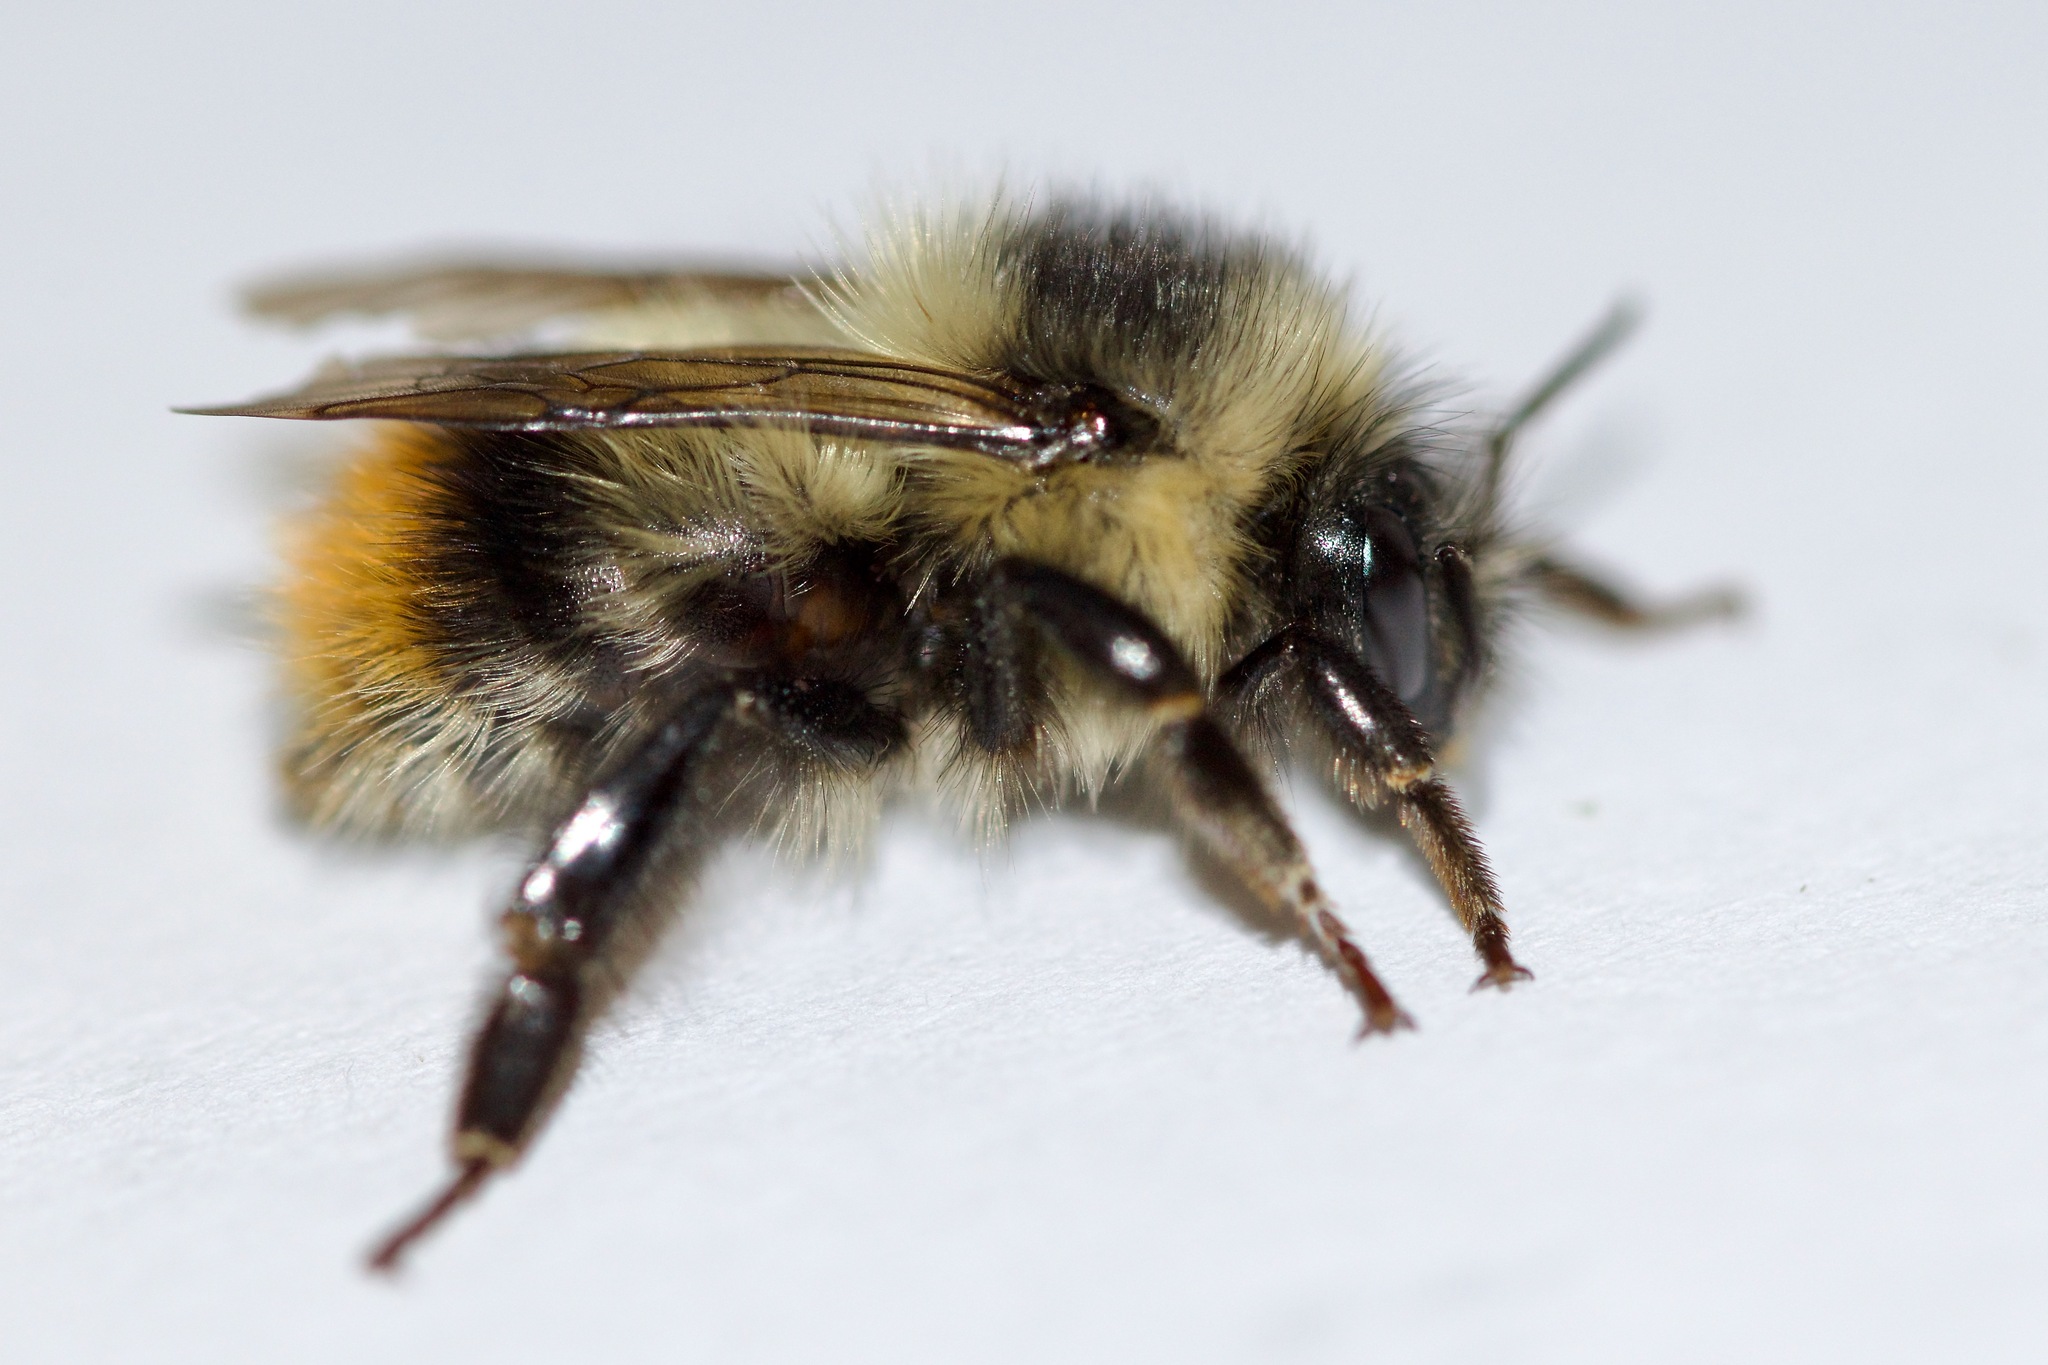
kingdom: Animalia
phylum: Arthropoda
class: Insecta
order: Hymenoptera
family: Apidae
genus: Bombus
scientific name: Bombus mixtus
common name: Fuzzy-horned bumble bee
